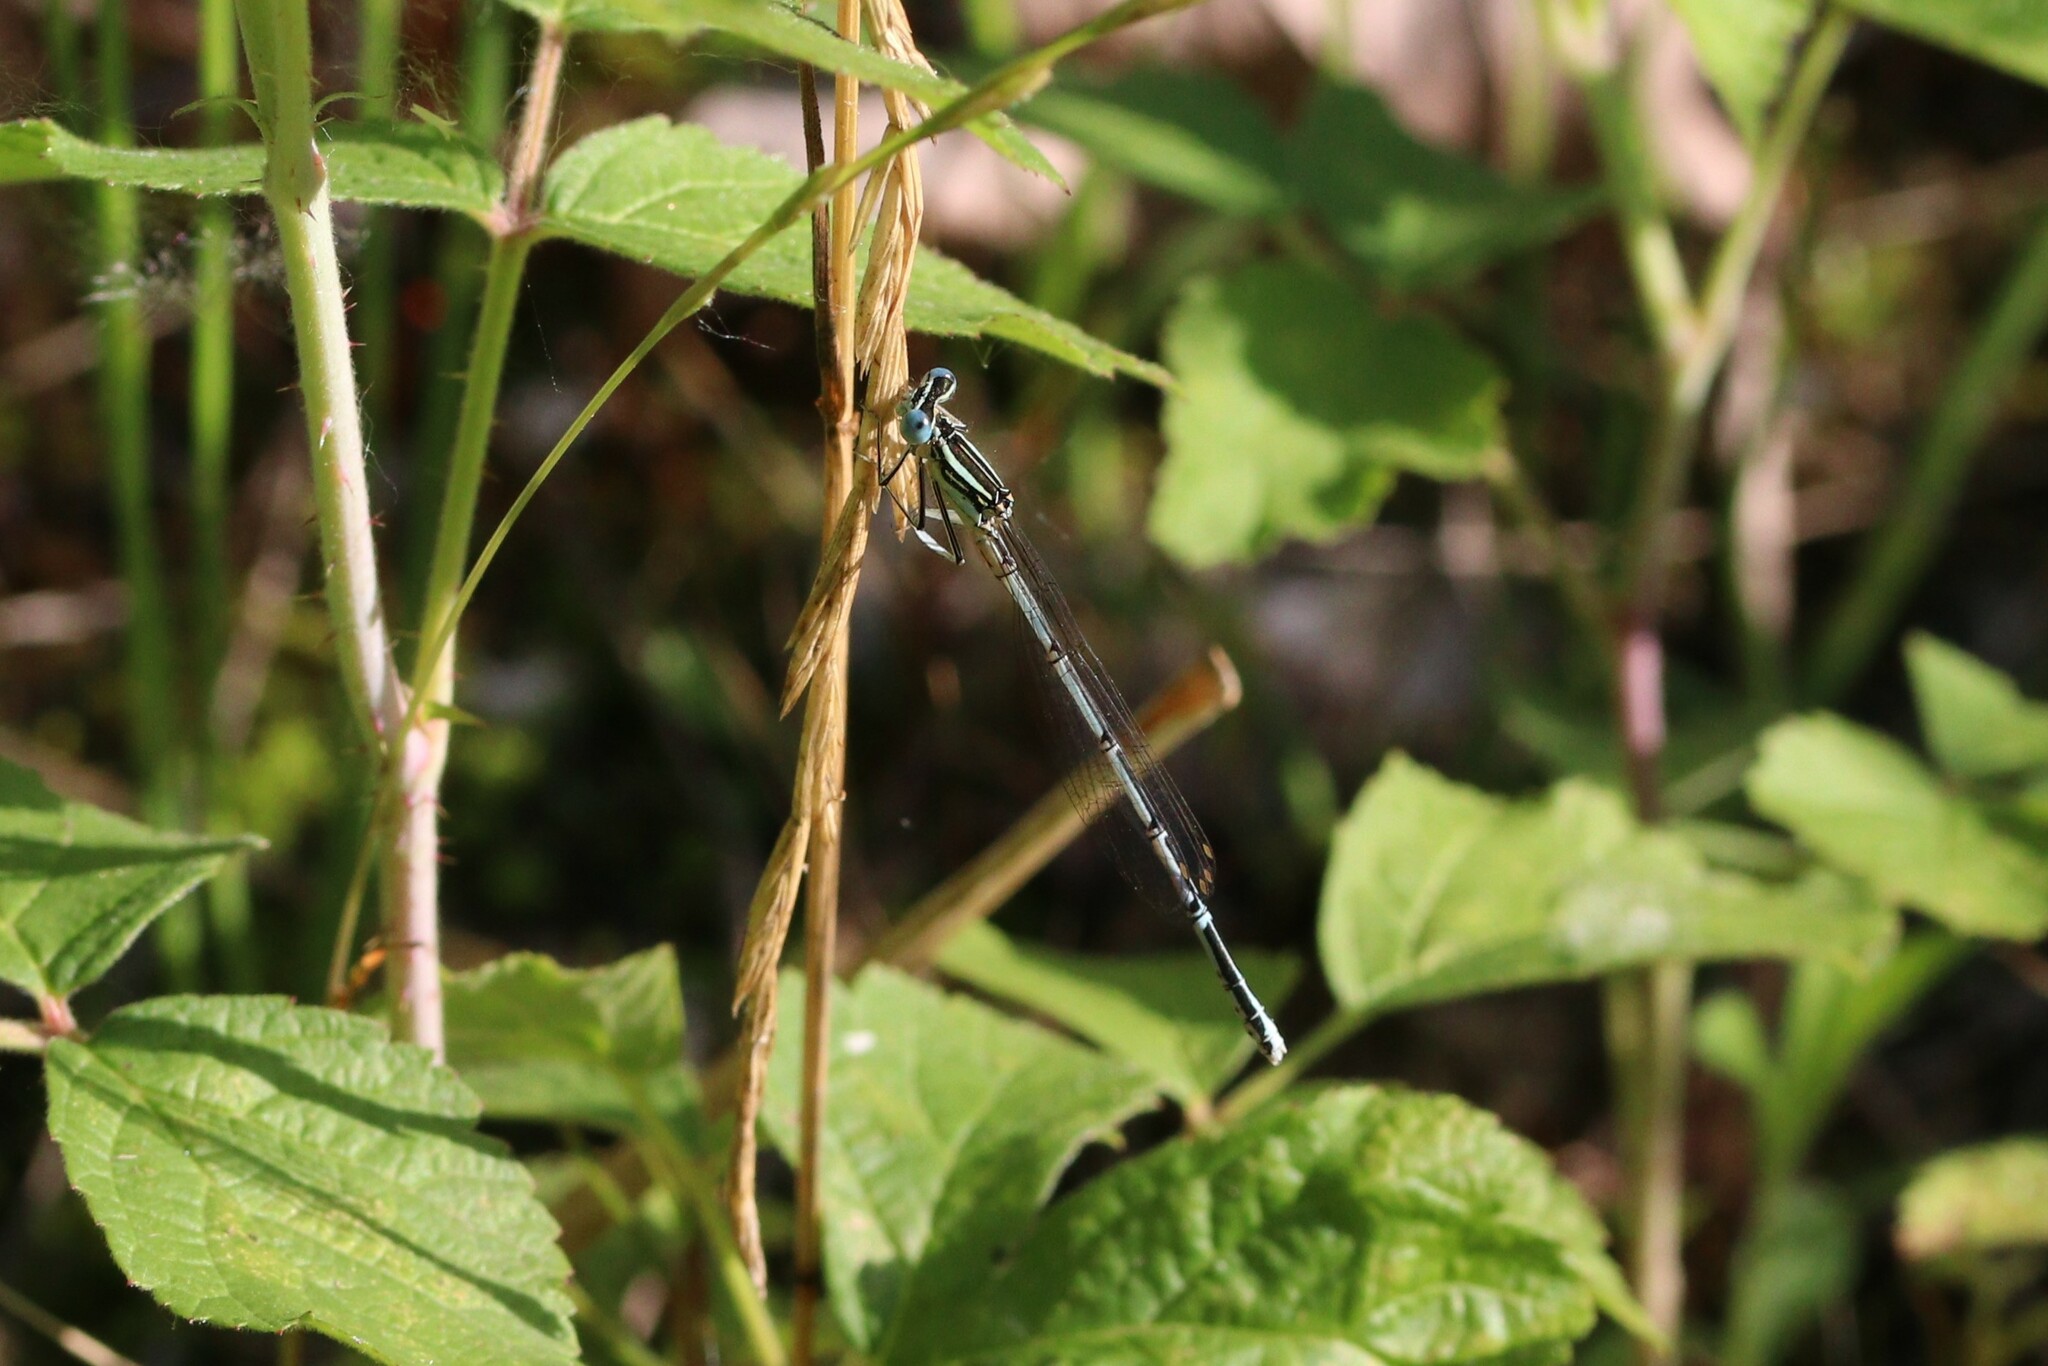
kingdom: Animalia
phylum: Arthropoda
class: Insecta
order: Odonata
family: Platycnemididae
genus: Platycnemis
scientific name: Platycnemis pennipes
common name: White-legged damselfly
